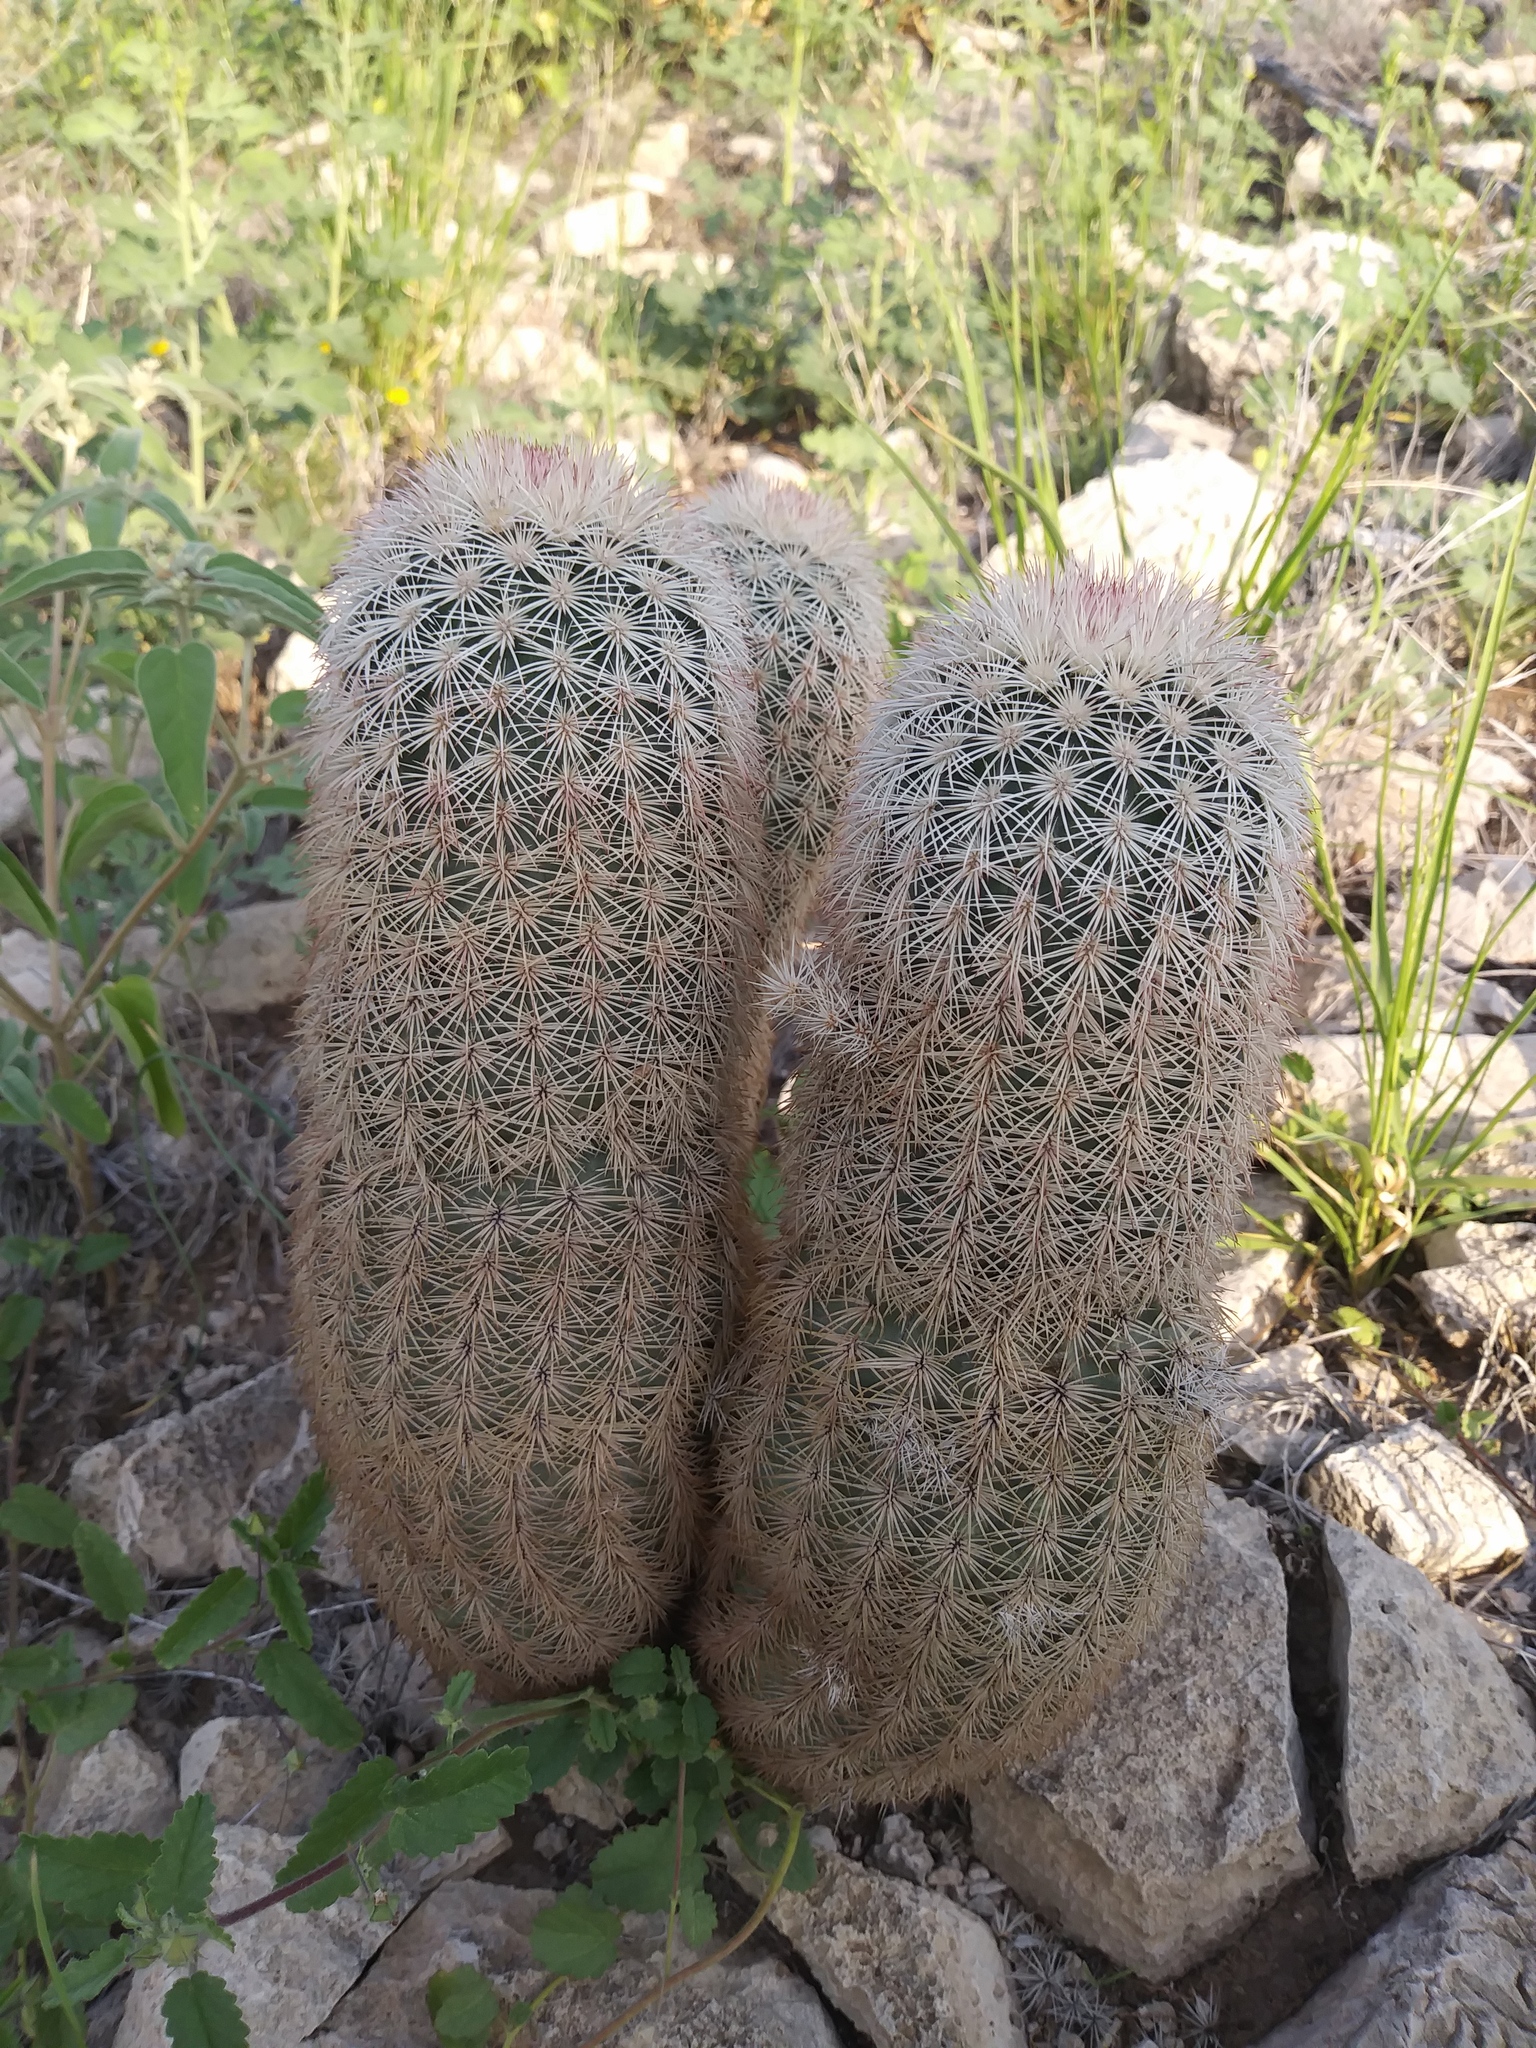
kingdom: Plantae
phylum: Tracheophyta
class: Magnoliopsida
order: Caryophyllales
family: Cactaceae
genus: Echinocereus
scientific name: Echinocereus dasyacanthus
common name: Spiny hedgehog cactus
